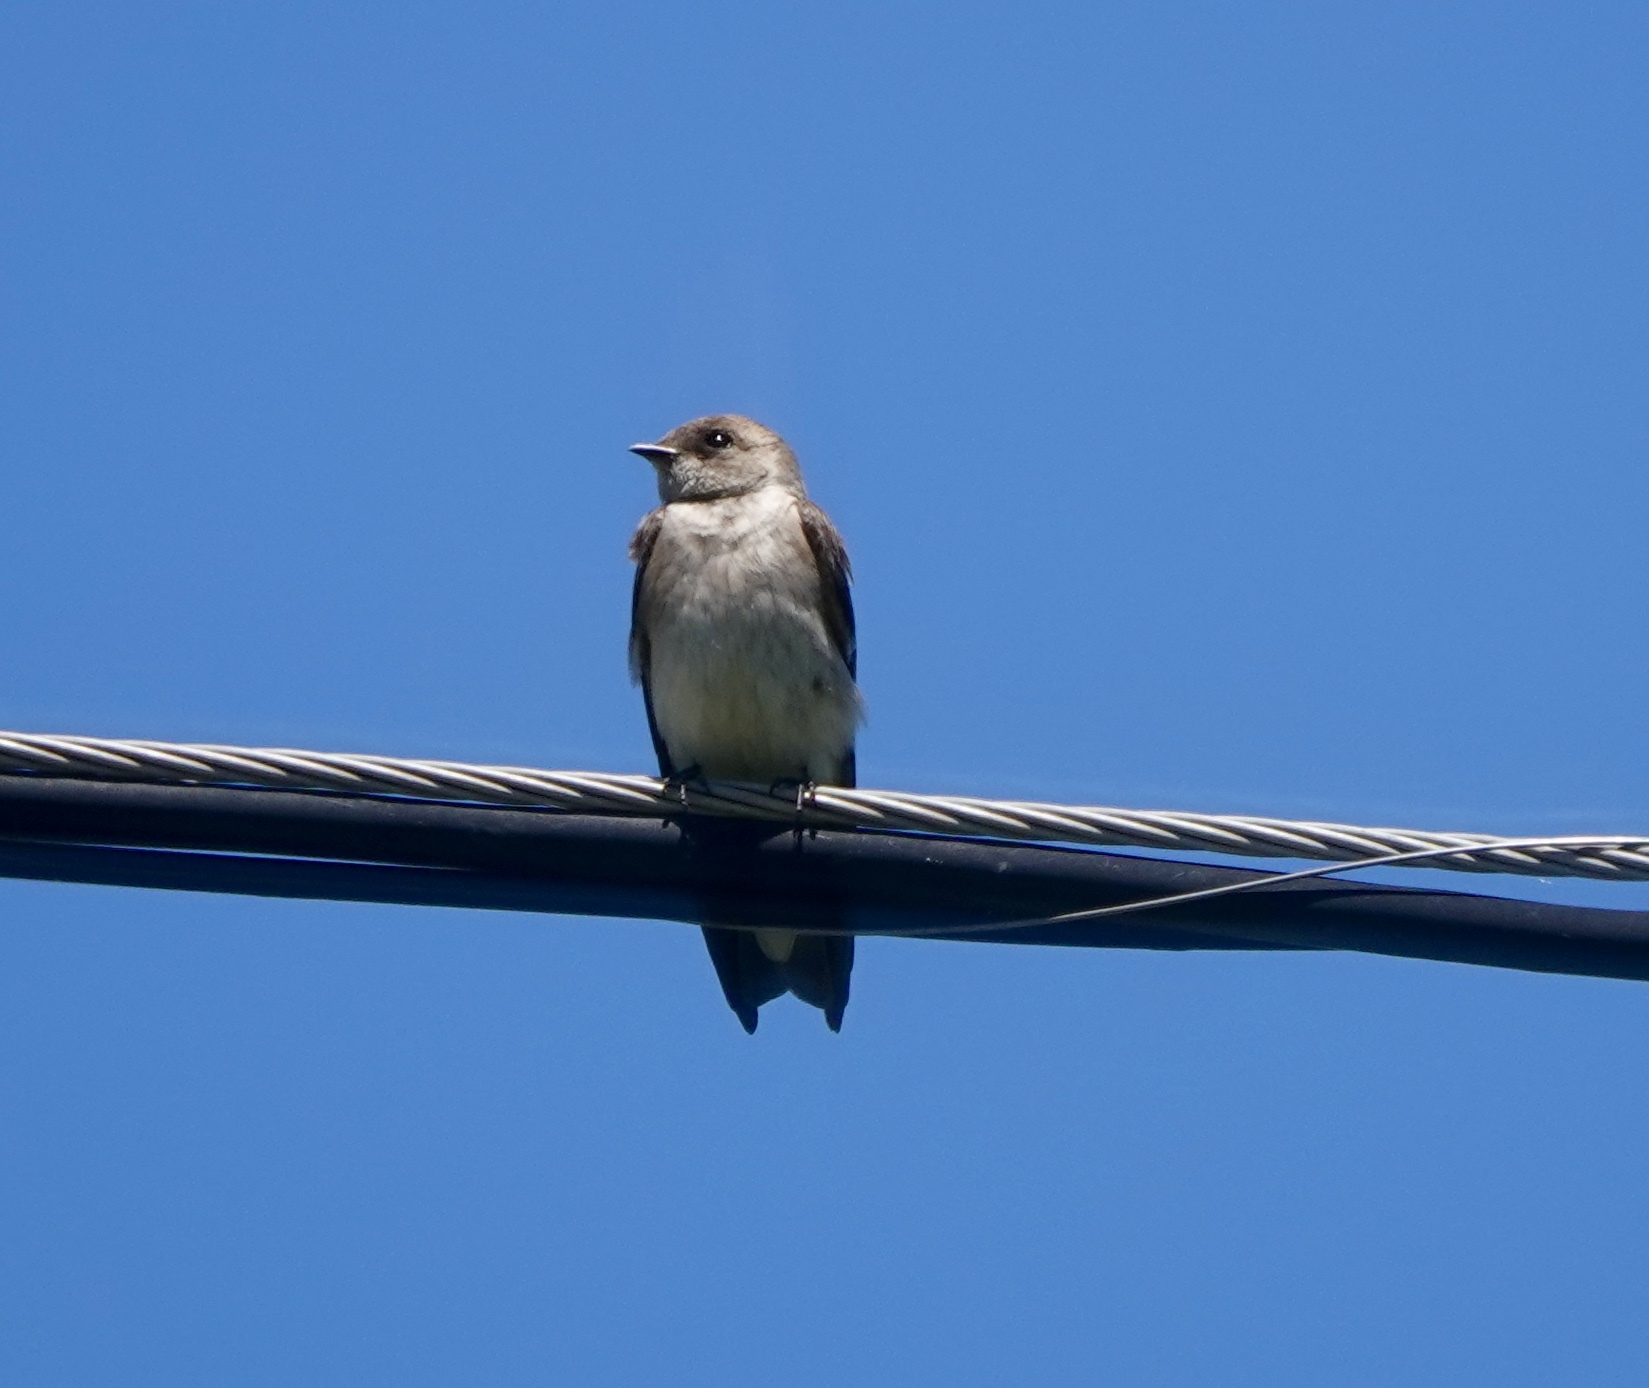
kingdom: Animalia
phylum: Chordata
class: Aves
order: Passeriformes
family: Hirundinidae
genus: Stelgidopteryx
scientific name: Stelgidopteryx serripennis
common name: Northern rough-winged swallow
